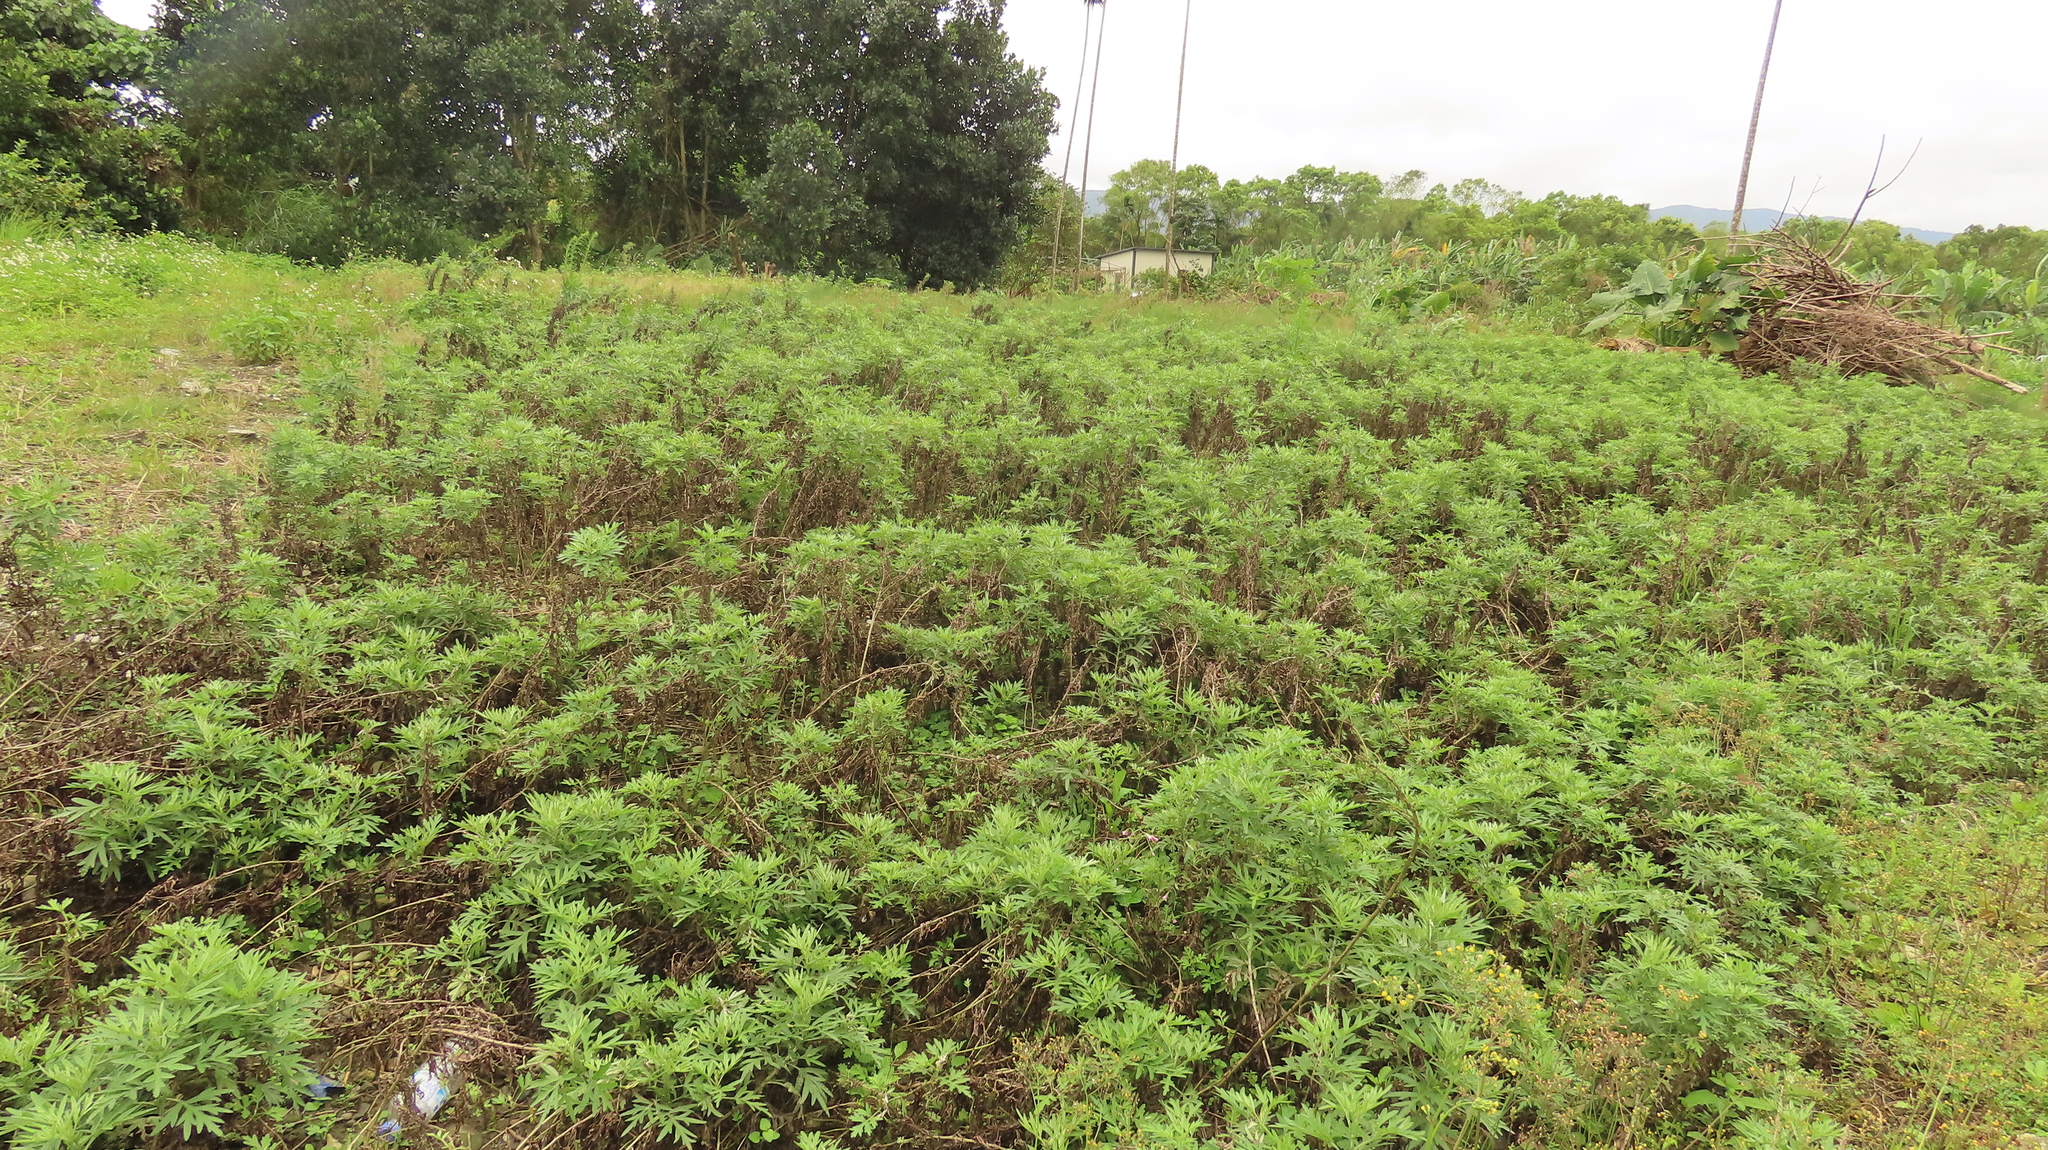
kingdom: Plantae
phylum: Tracheophyta
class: Magnoliopsida
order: Asterales
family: Asteraceae
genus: Artemisia
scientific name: Artemisia indica
